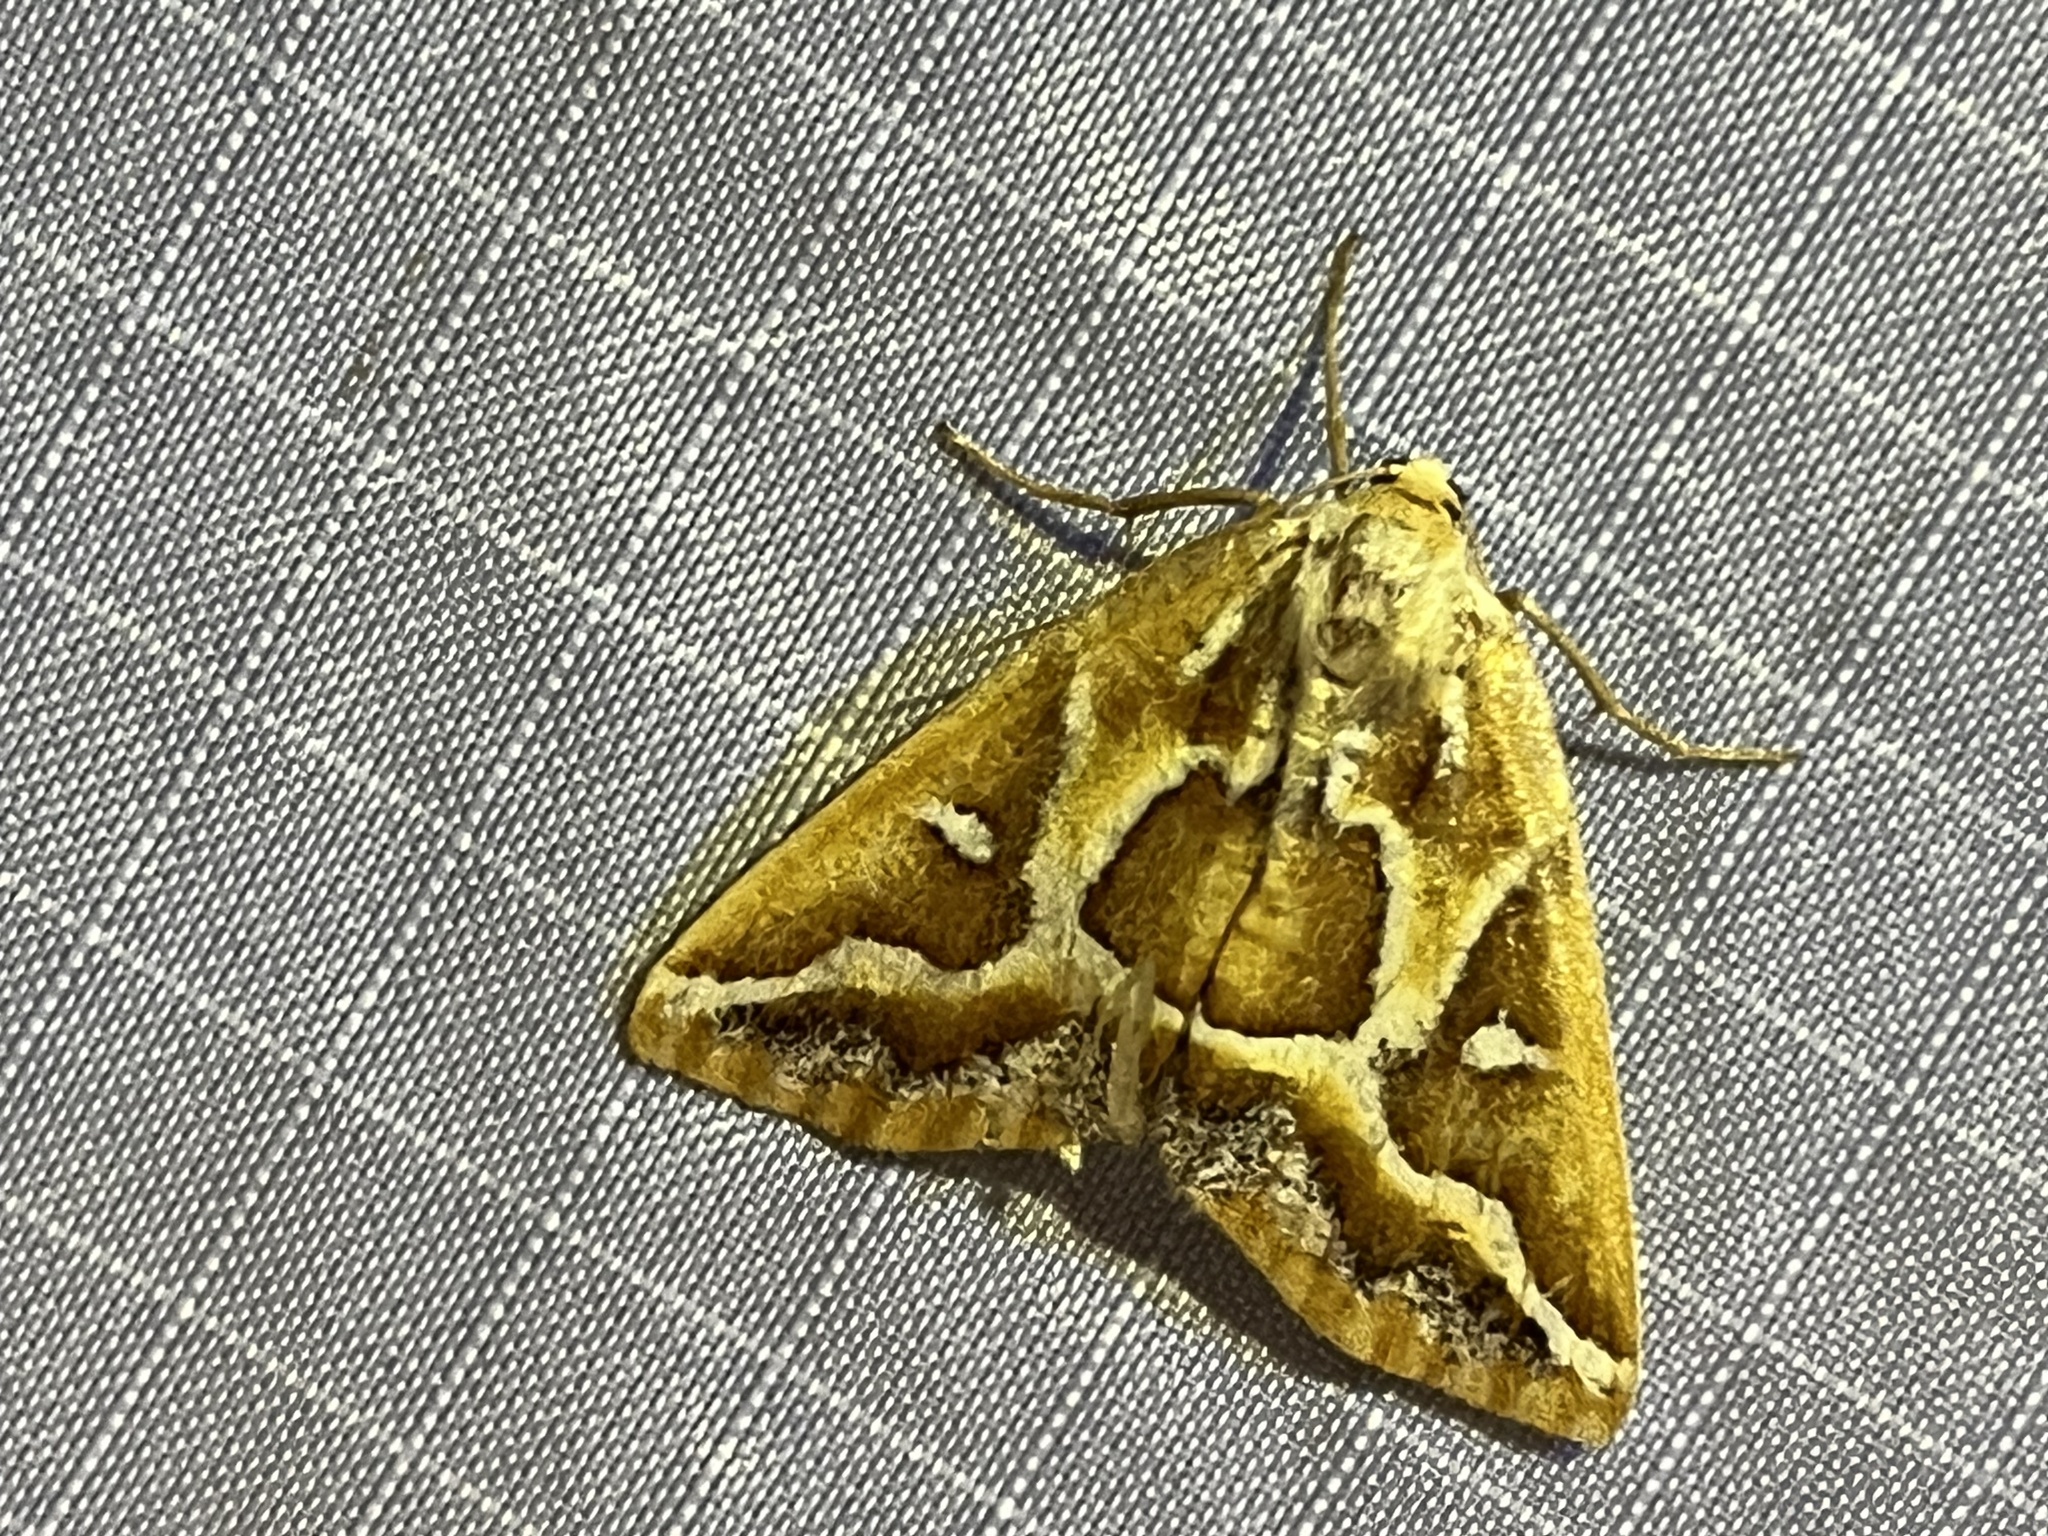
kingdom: Animalia
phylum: Arthropoda
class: Insecta
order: Lepidoptera
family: Geometridae
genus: Caripeta
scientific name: Caripeta angustiorata
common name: Brown pine looper
